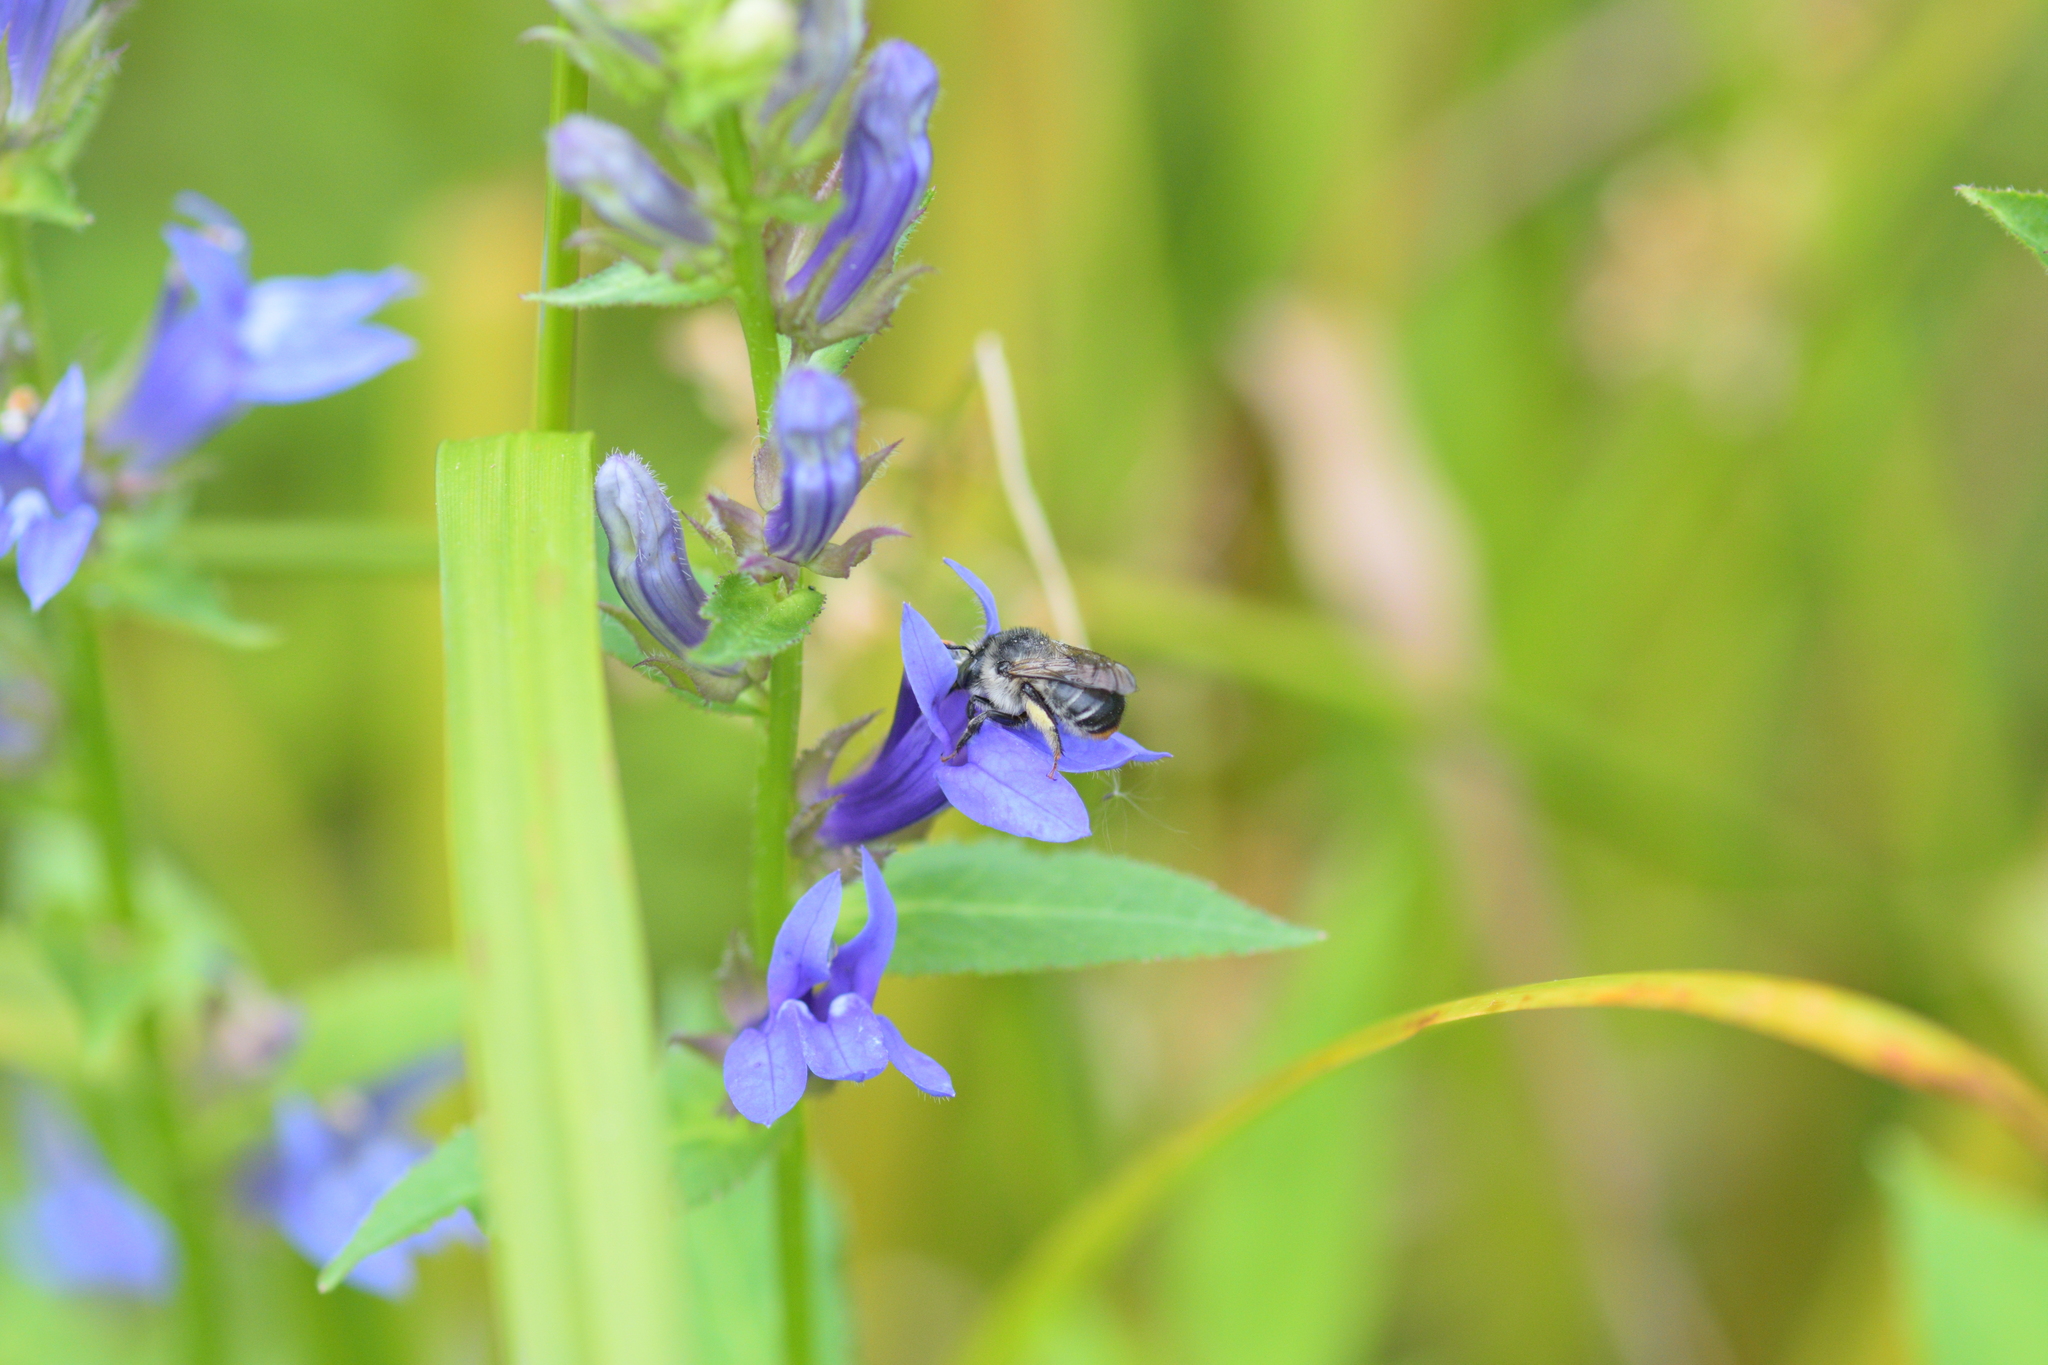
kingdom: Animalia
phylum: Arthropoda
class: Insecta
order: Hymenoptera
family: Apidae
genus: Anthophora
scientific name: Anthophora terminalis
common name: Orange-tipped wood-digger bee
